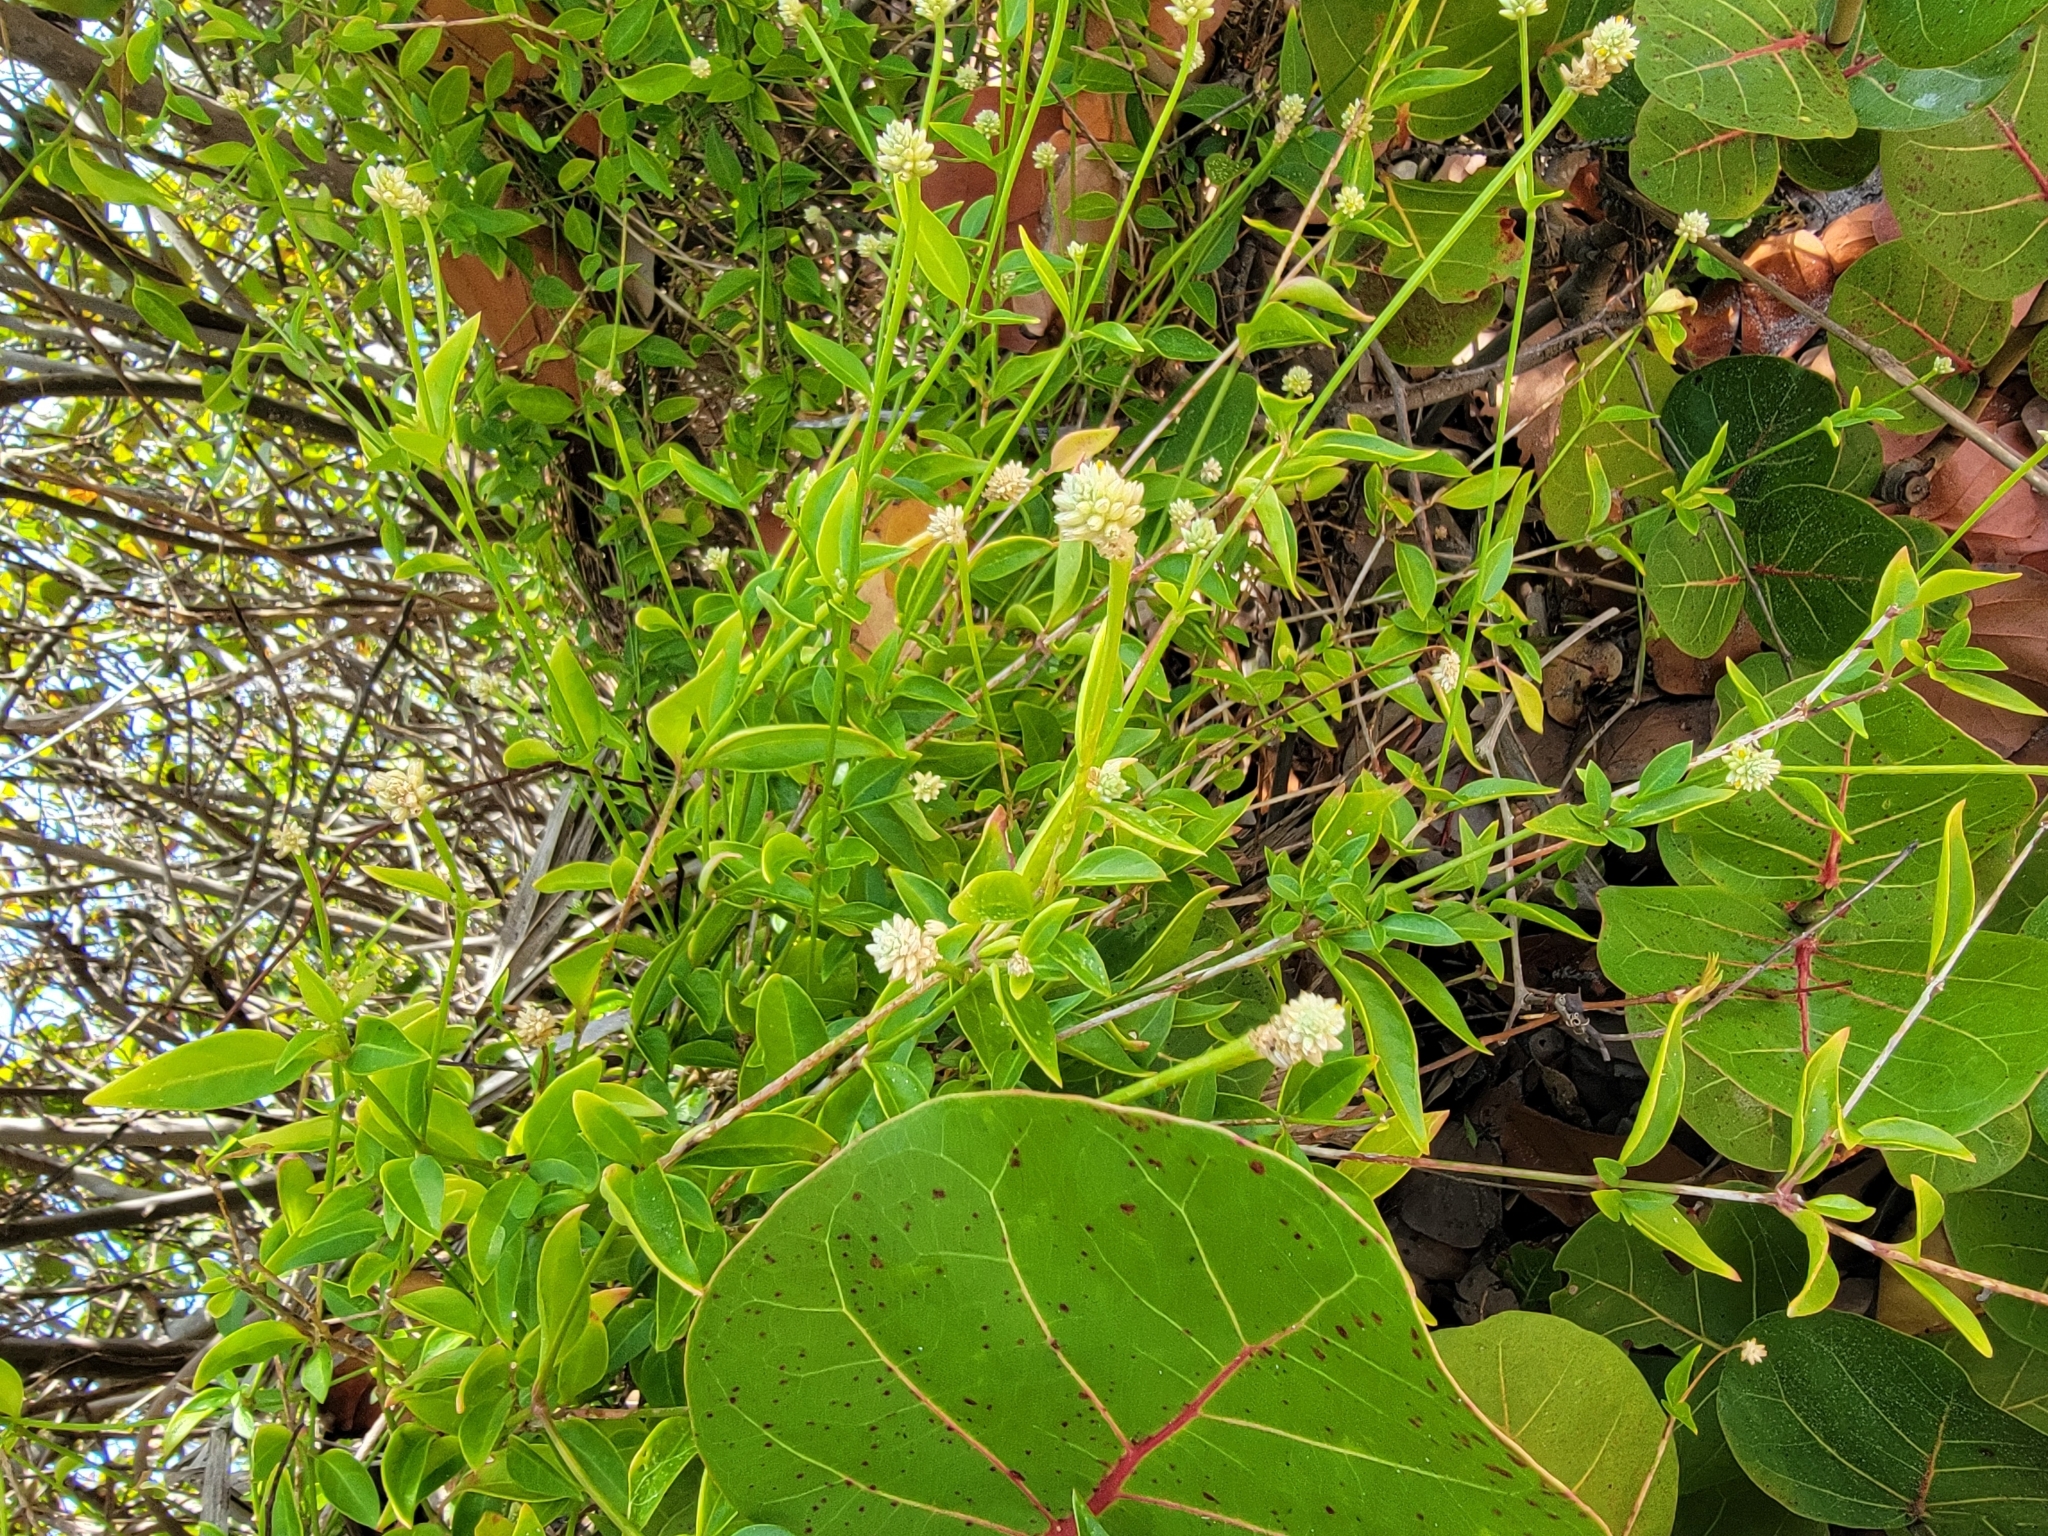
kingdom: Plantae
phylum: Tracheophyta
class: Magnoliopsida
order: Caryophyllales
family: Amaranthaceae
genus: Alternanthera
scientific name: Alternanthera flavescens
